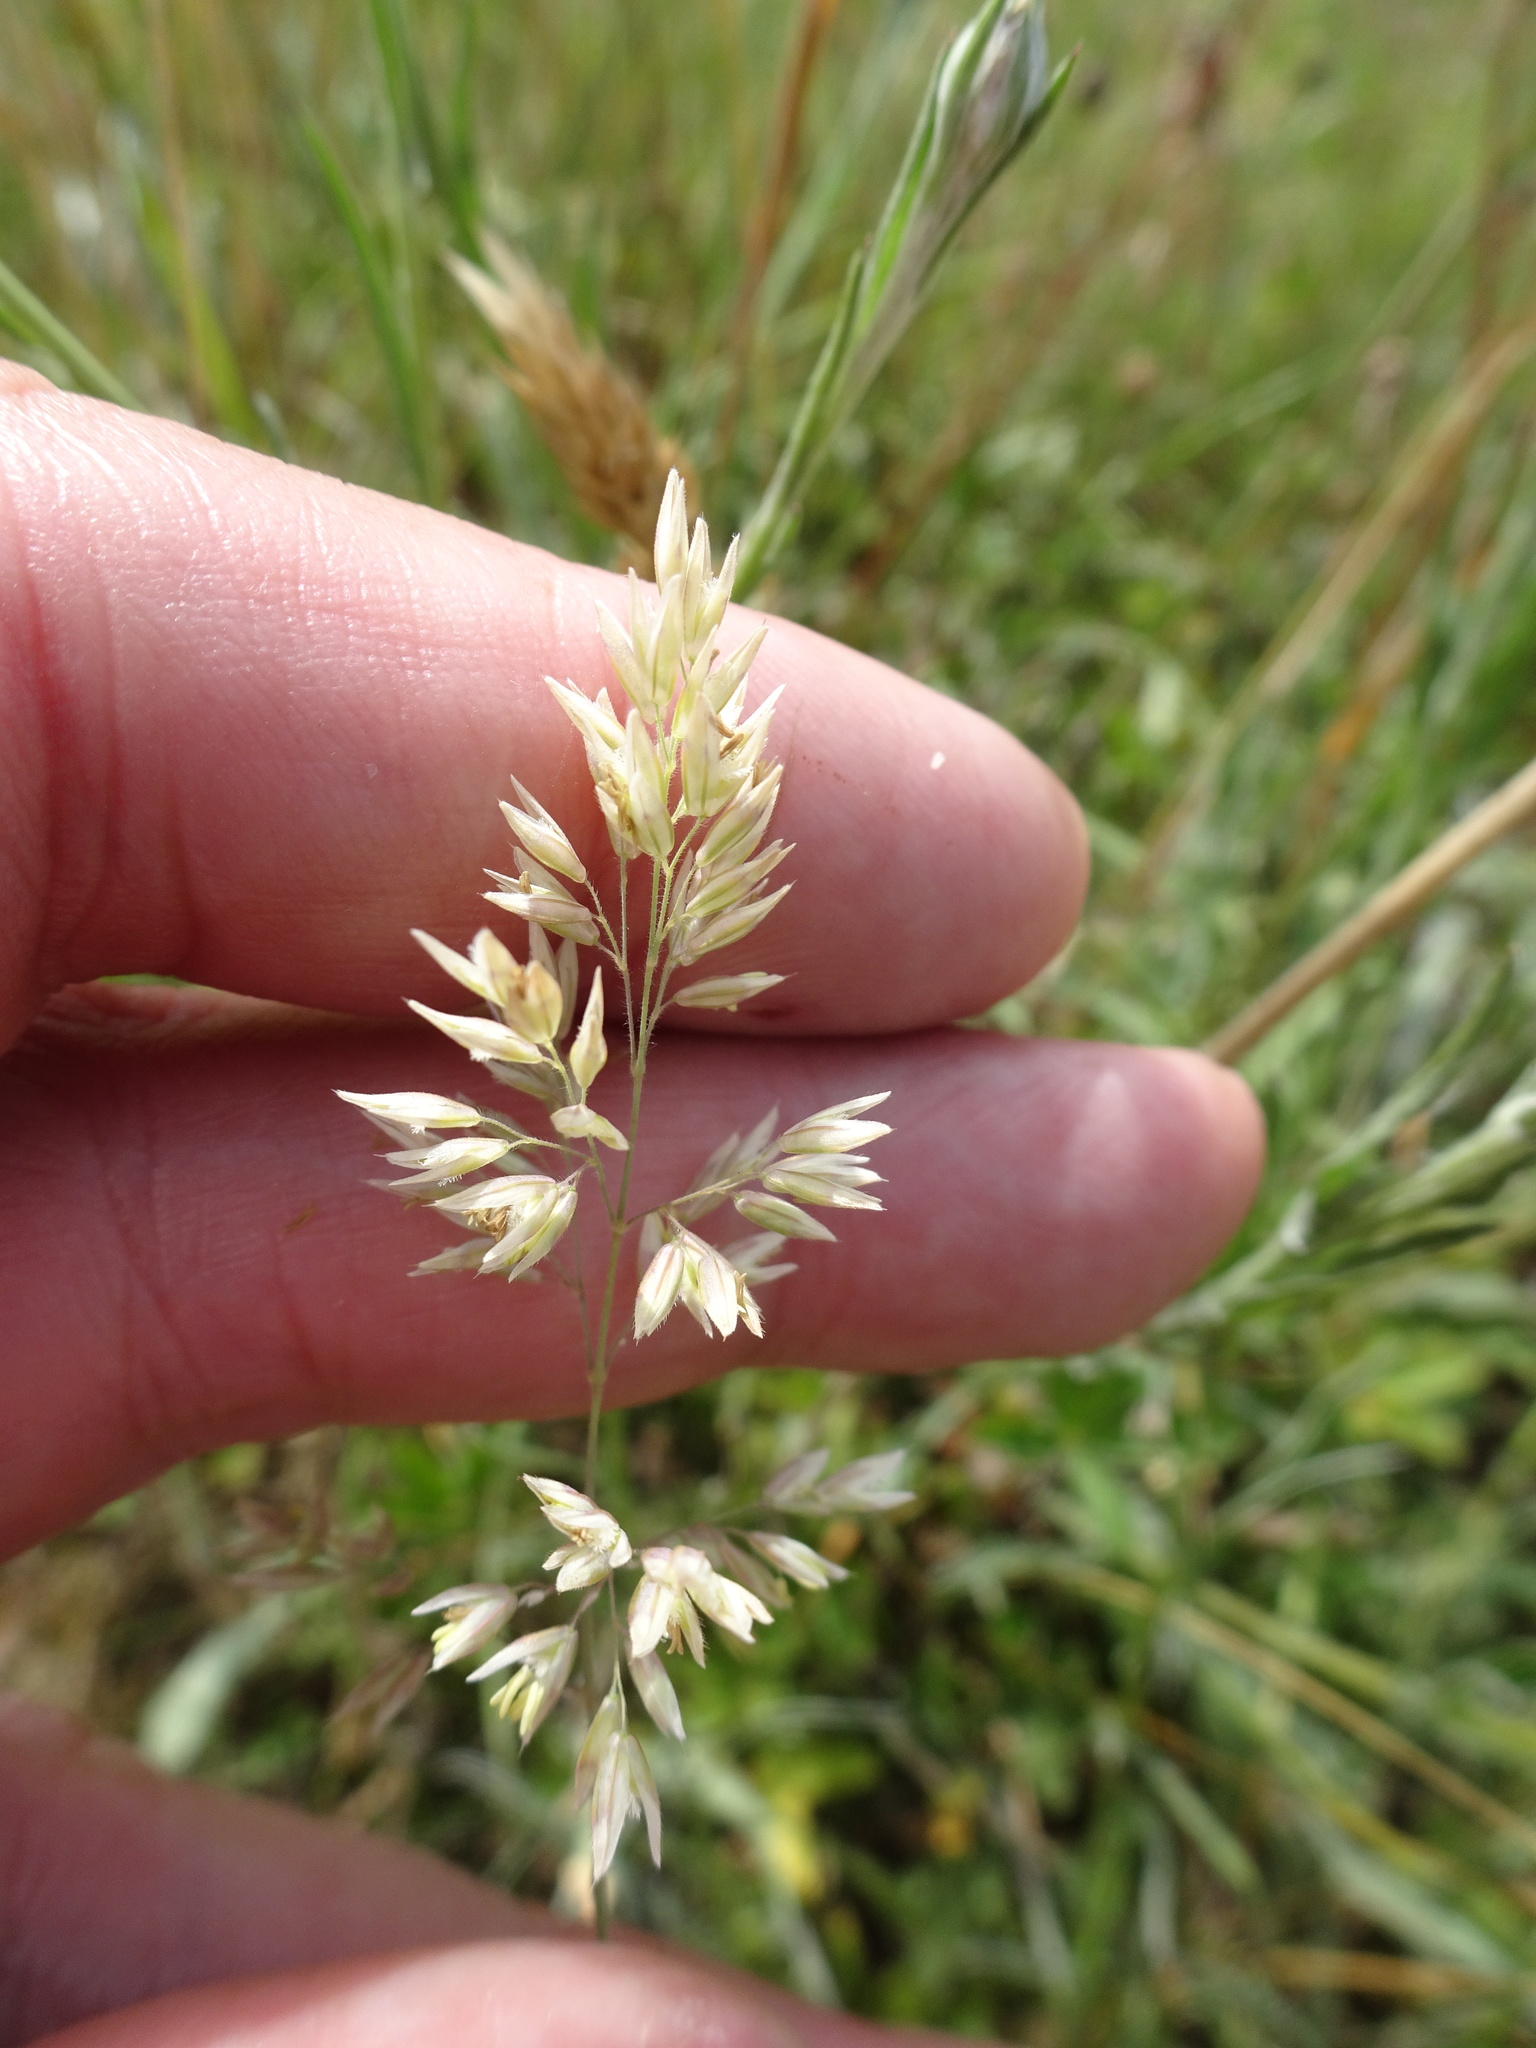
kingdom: Plantae
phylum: Tracheophyta
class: Liliopsida
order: Poales
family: Poaceae
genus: Holcus
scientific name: Holcus lanatus
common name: Yorkshire-fog
